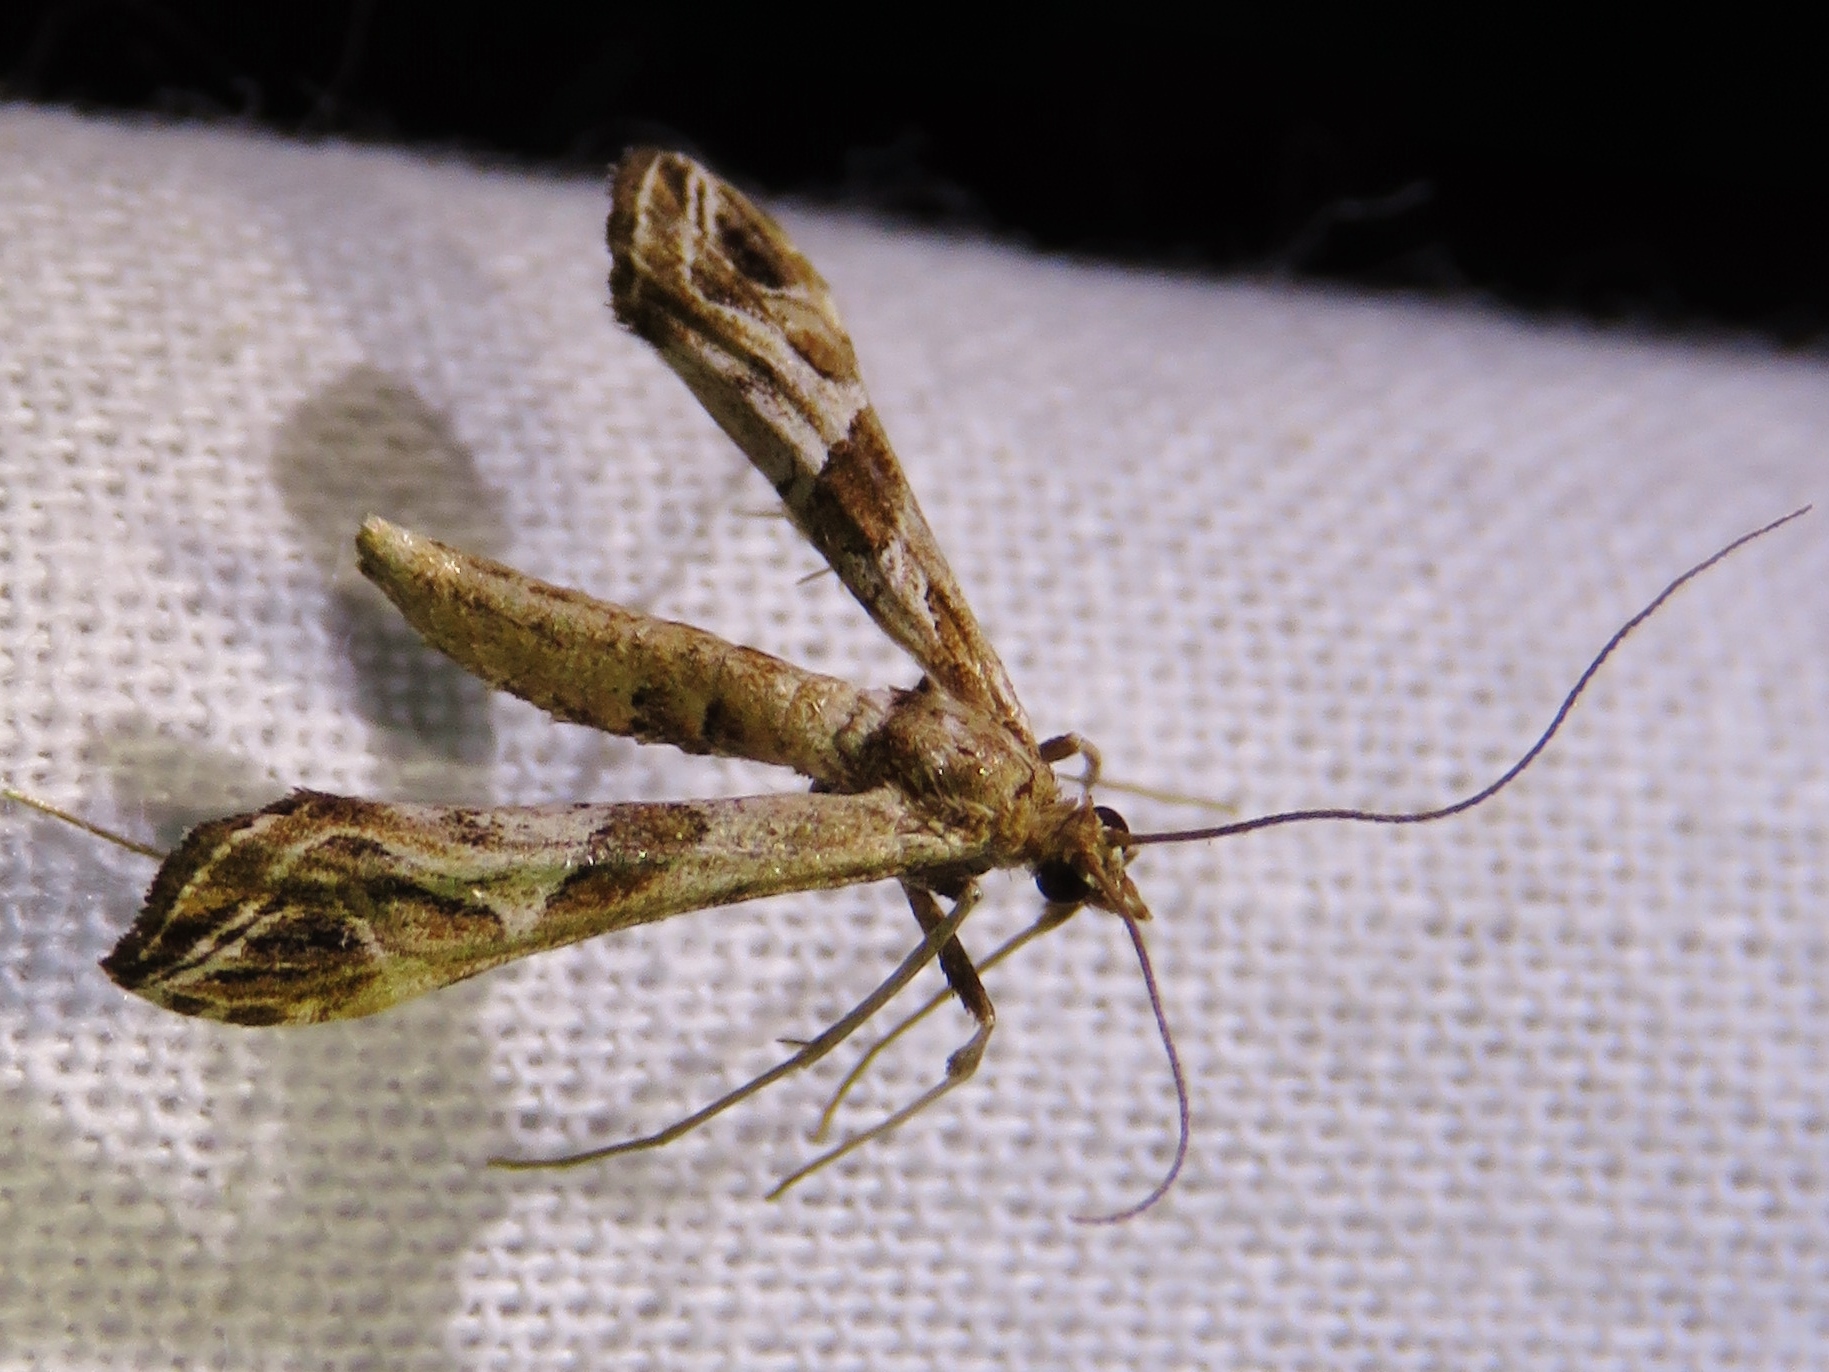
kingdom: Animalia
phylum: Arthropoda
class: Insecta
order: Lepidoptera
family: Crambidae
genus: Lineodes
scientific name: Lineodes interrupta
